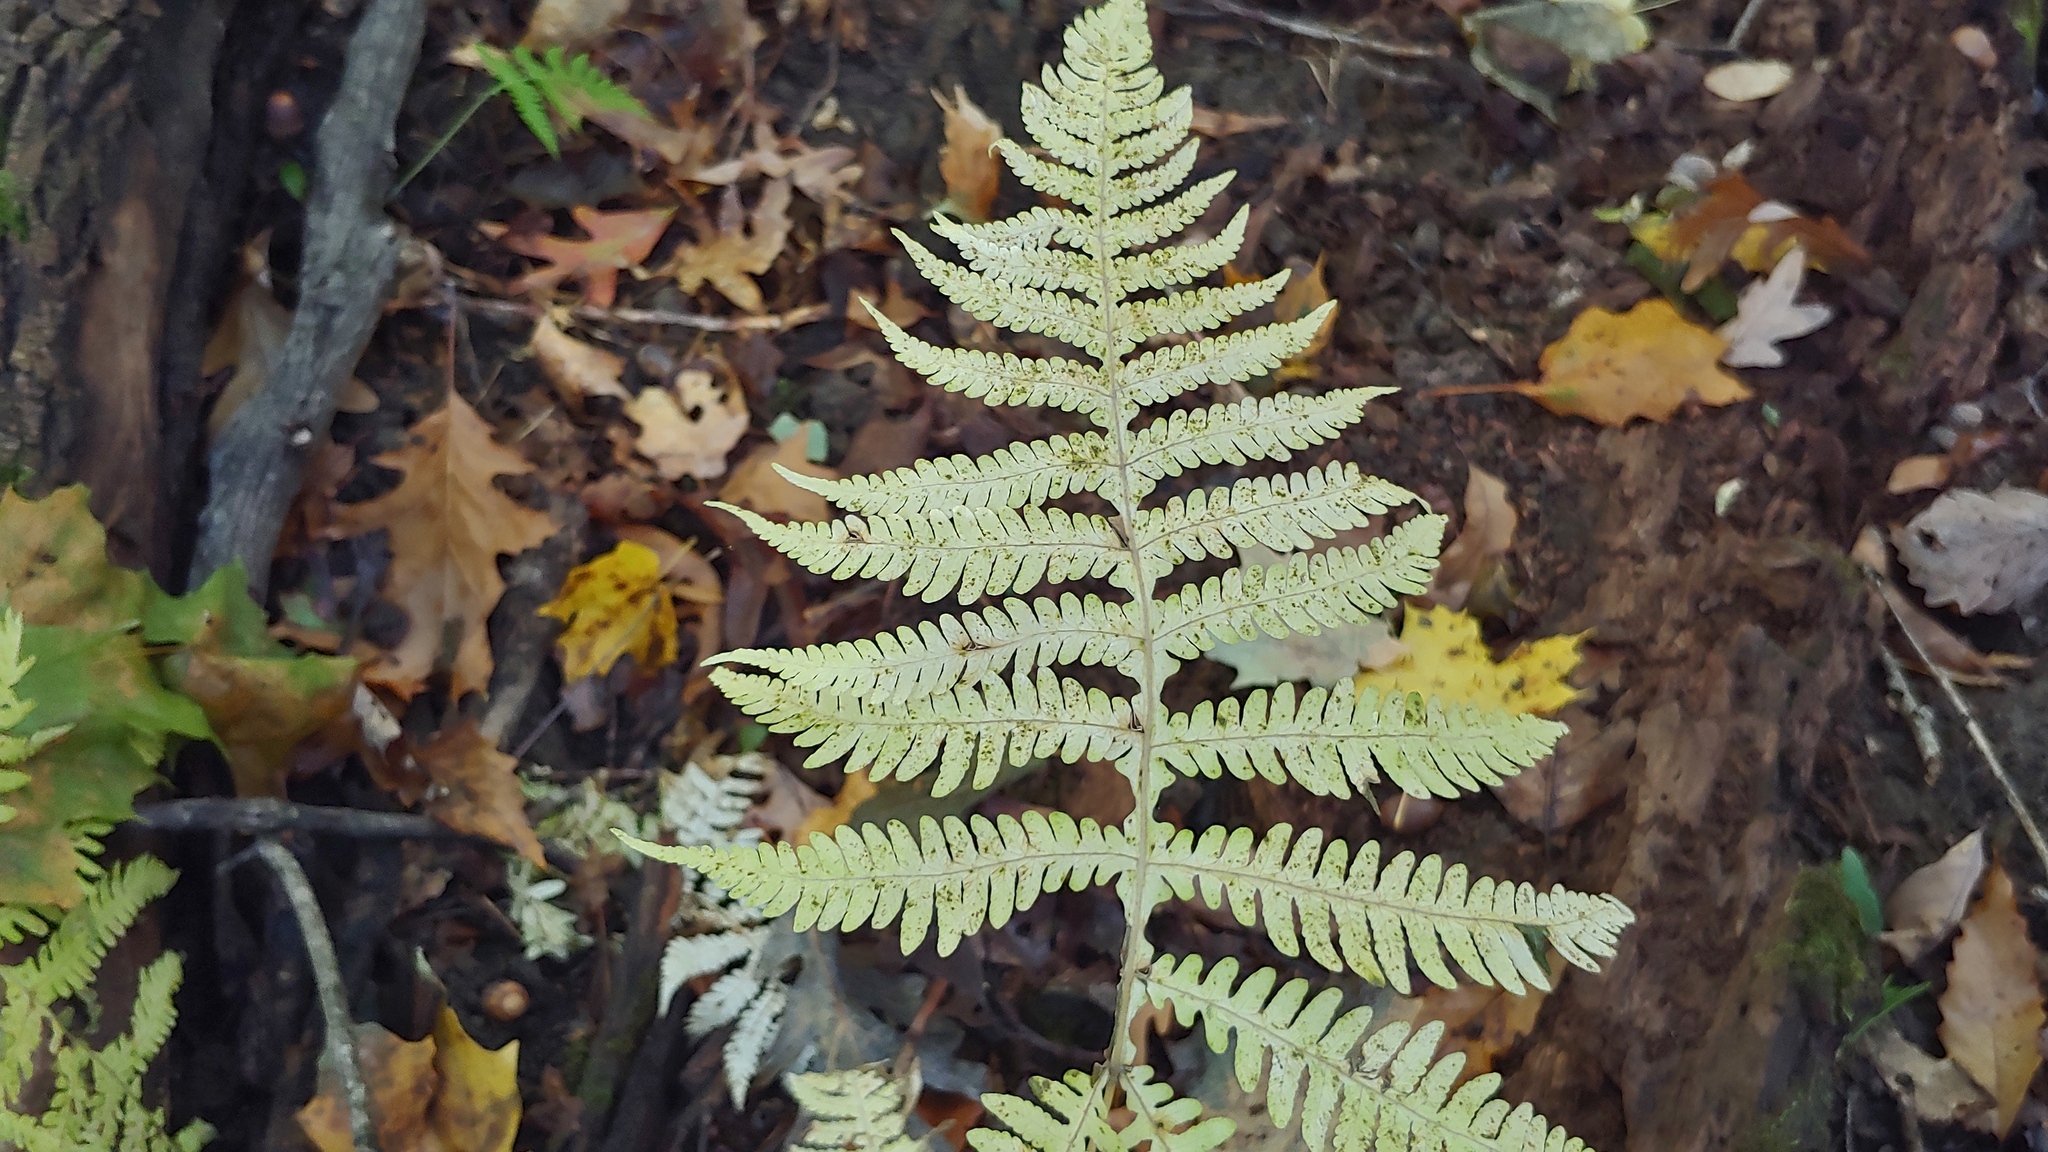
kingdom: Plantae
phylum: Tracheophyta
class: Polypodiopsida
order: Polypodiales
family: Thelypteridaceae
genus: Phegopteris
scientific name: Phegopteris hexagonoptera
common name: Broad beech fern
